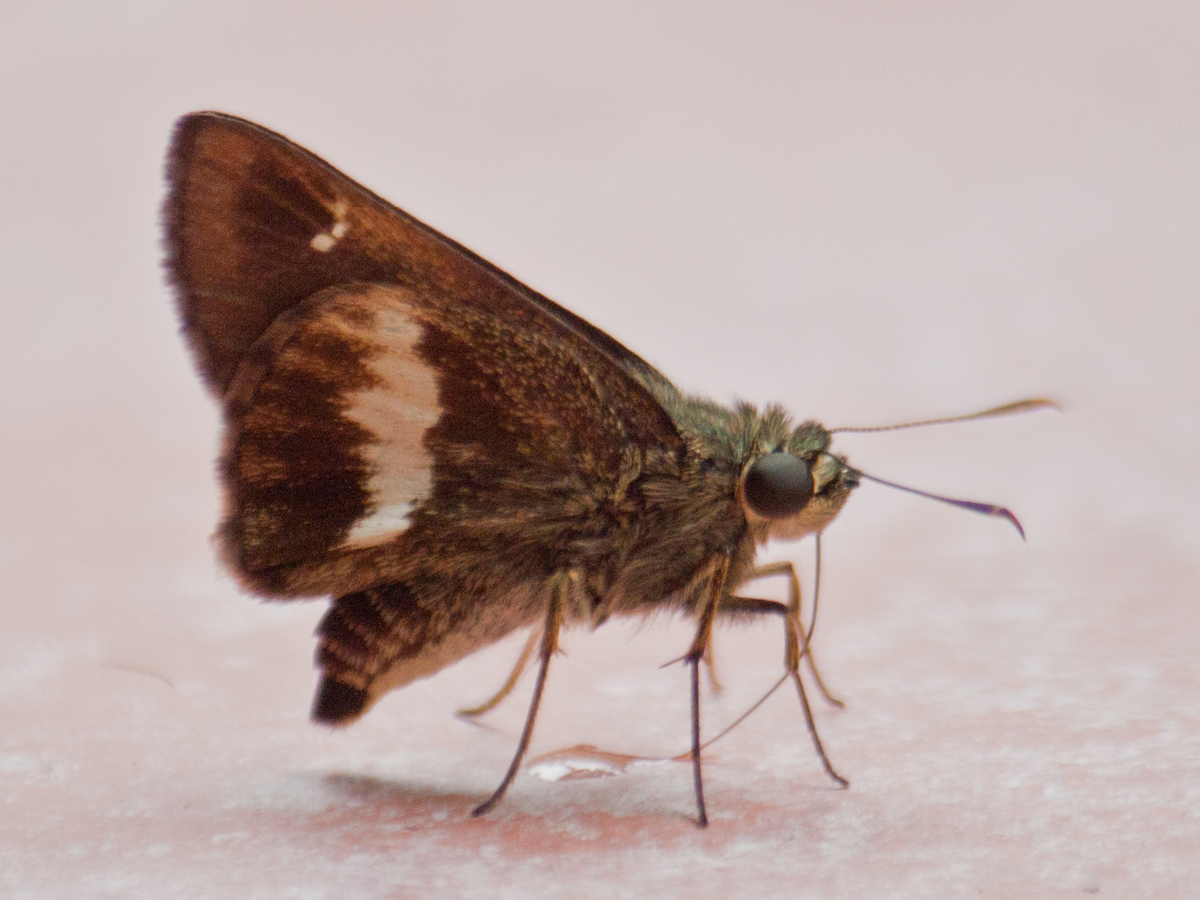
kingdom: Animalia
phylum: Arthropoda
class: Insecta
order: Lepidoptera
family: Hesperiidae
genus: Halpe
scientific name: Halpe zola
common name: Long-banded ace
